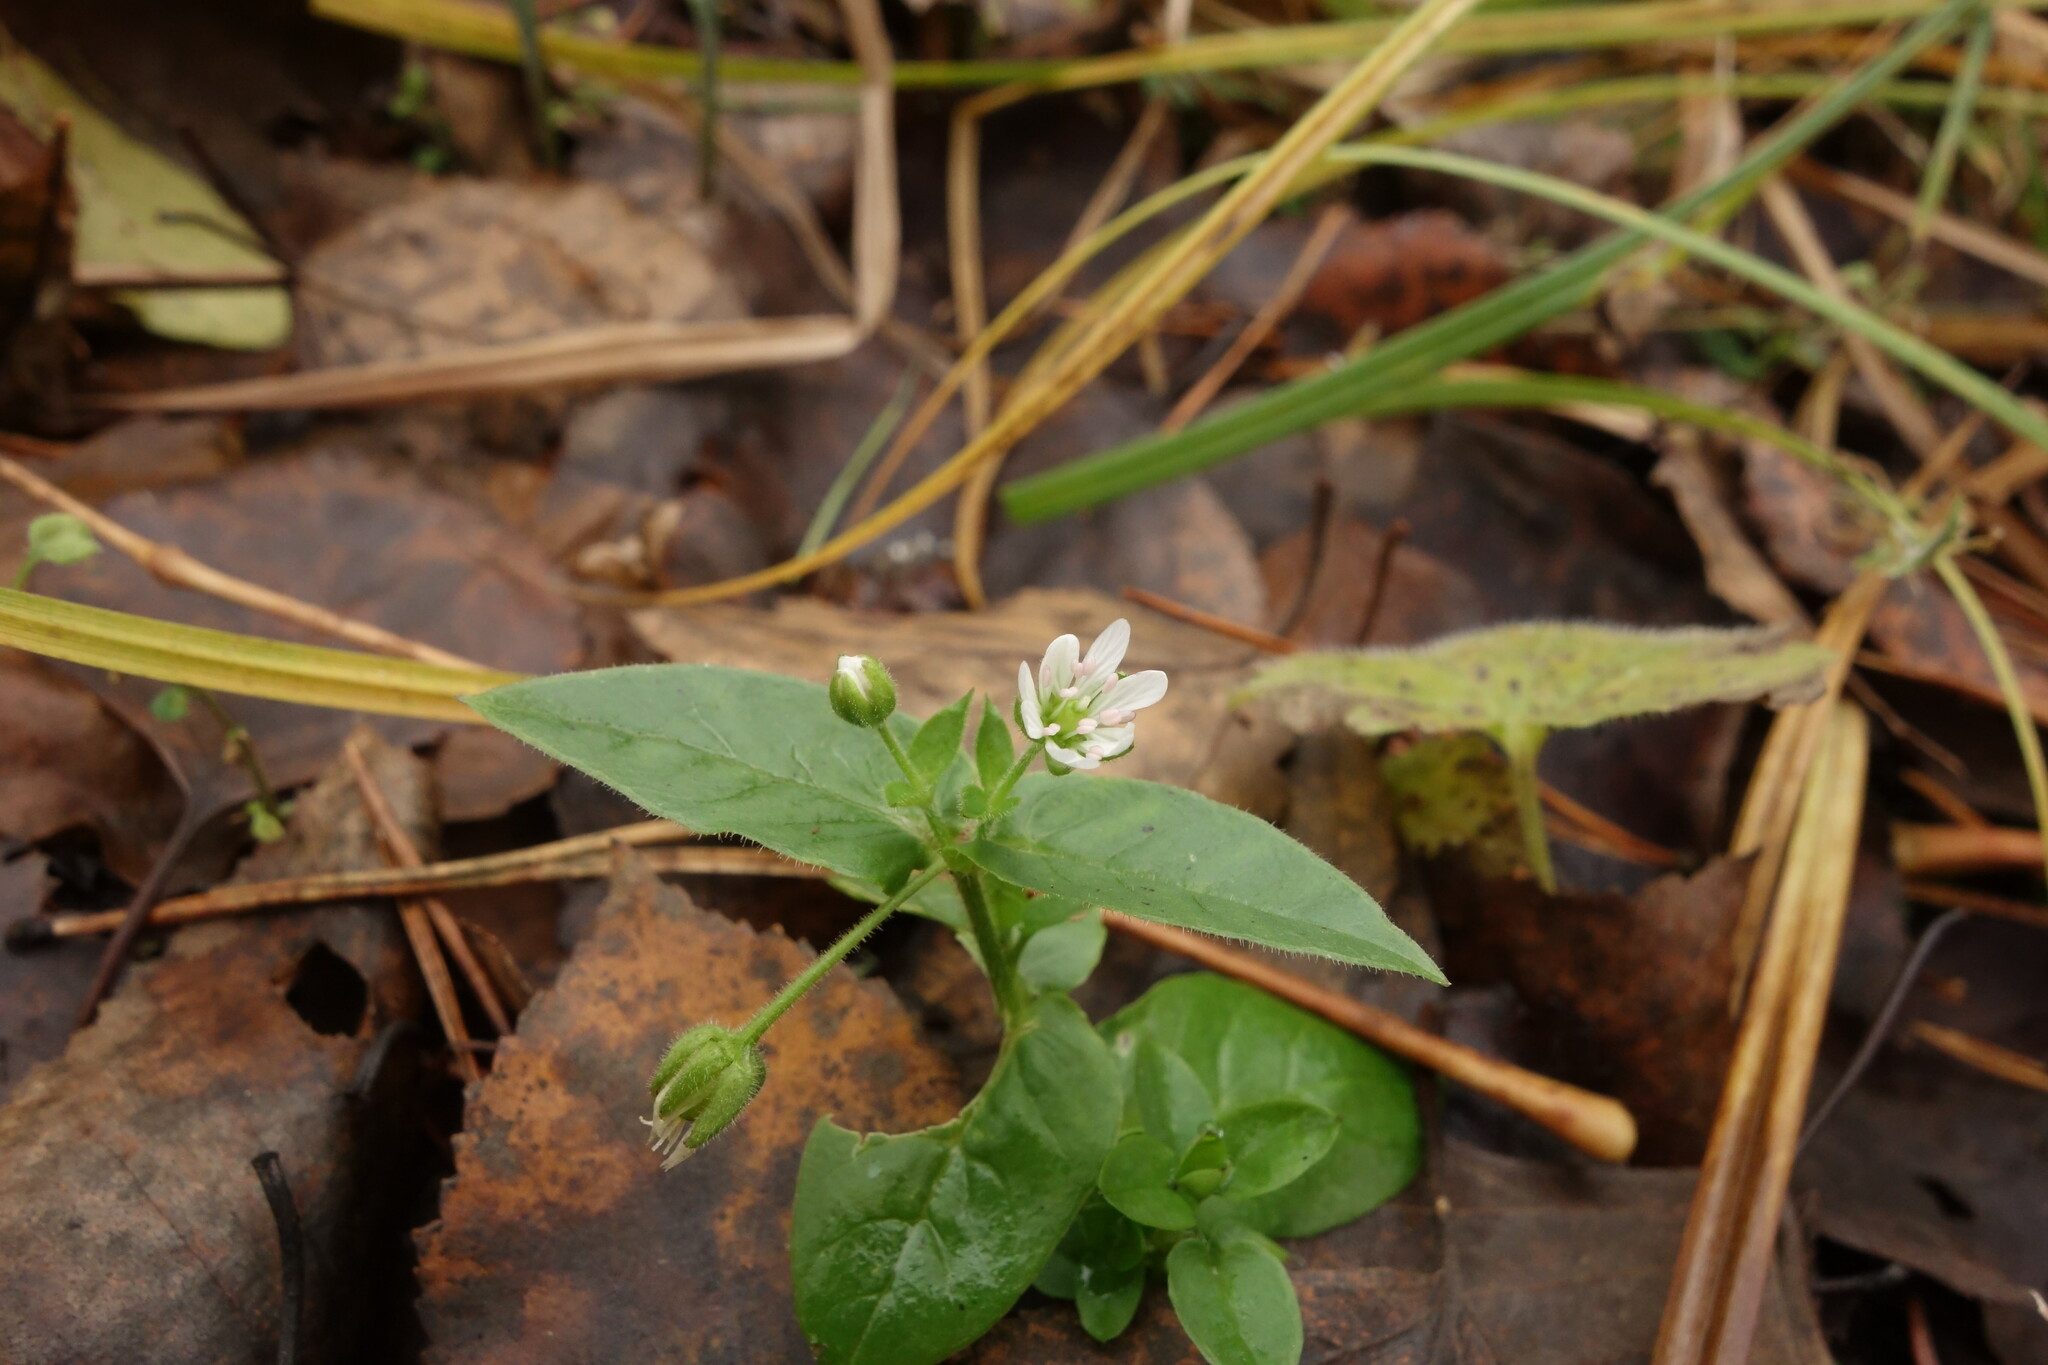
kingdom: Plantae
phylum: Tracheophyta
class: Magnoliopsida
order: Caryophyllales
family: Caryophyllaceae
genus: Stellaria
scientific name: Stellaria aquatica
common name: Water chickweed
